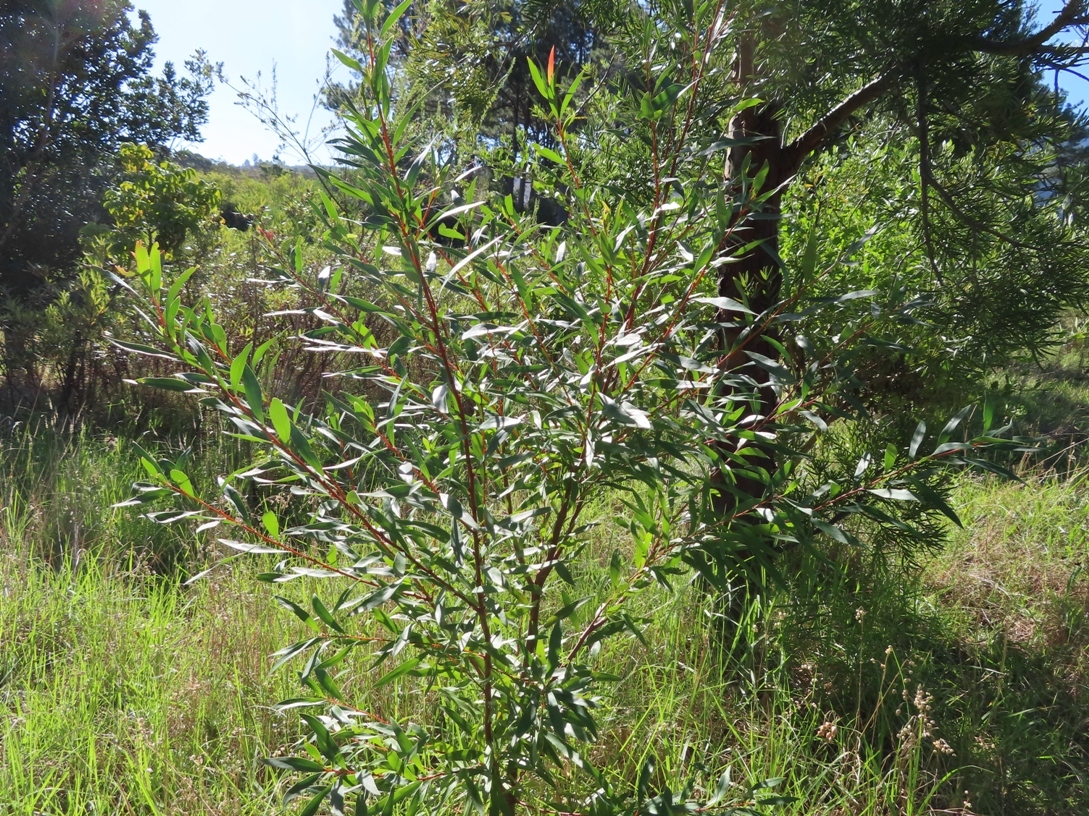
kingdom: Plantae
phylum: Tracheophyta
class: Magnoliopsida
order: Proteales
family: Proteaceae
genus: Hakea
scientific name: Hakea salicifolia
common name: Willow hakea
